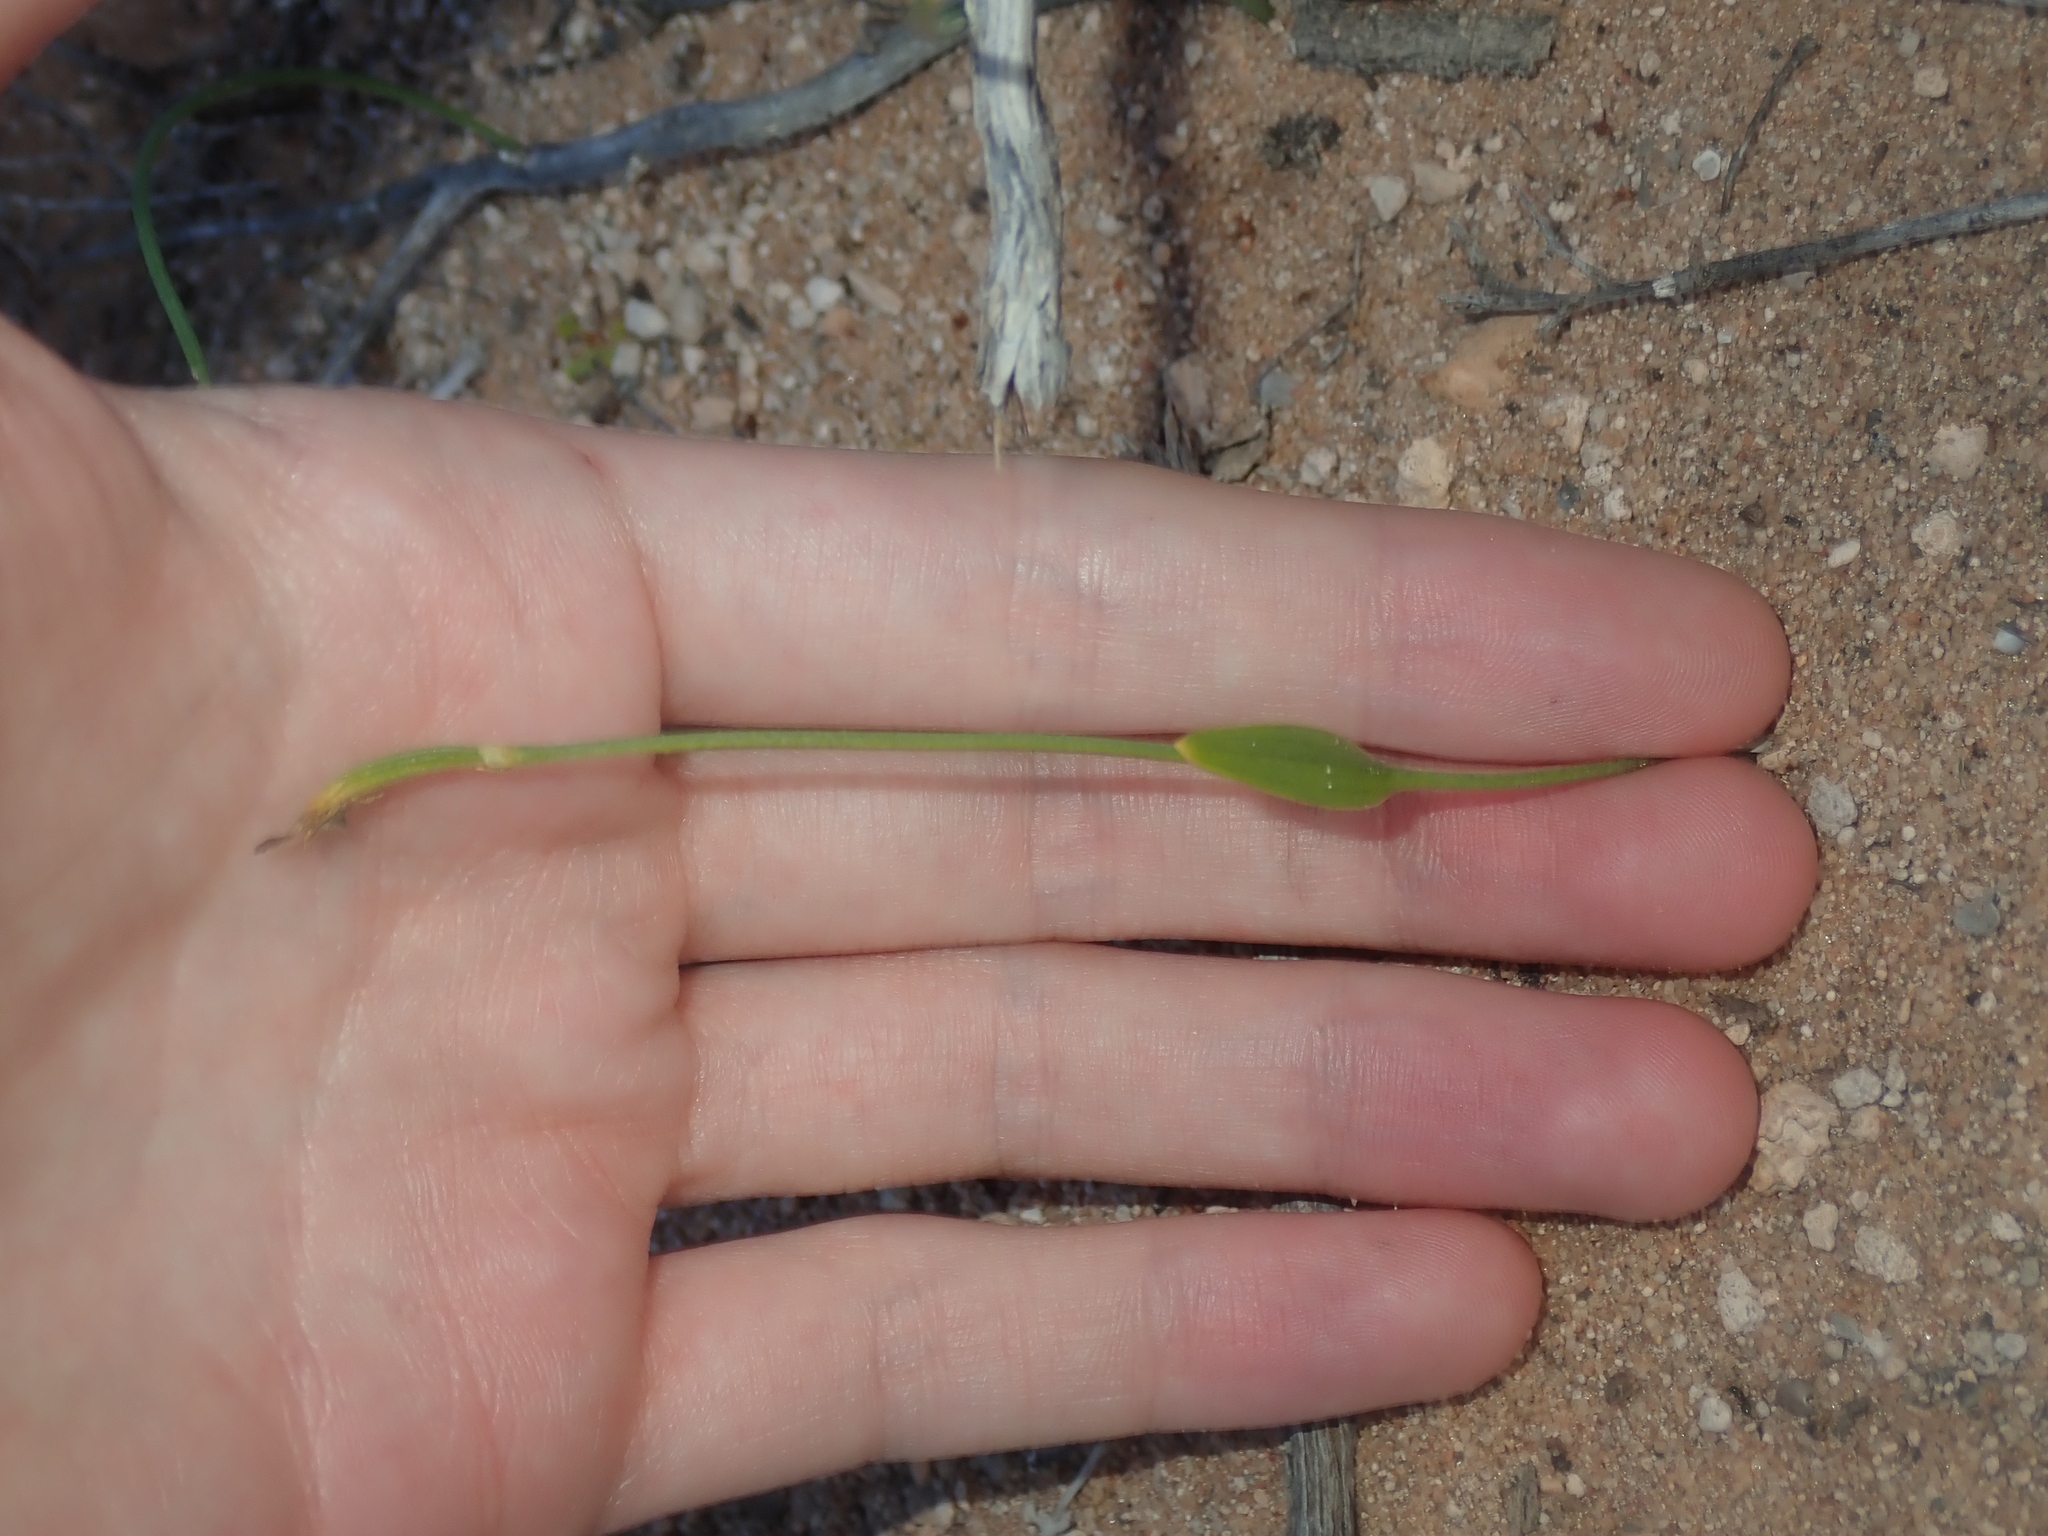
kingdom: Plantae
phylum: Tracheophyta
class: Liliopsida
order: Asparagales
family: Orchidaceae
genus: Eriochilus
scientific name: Eriochilus dilatatus
